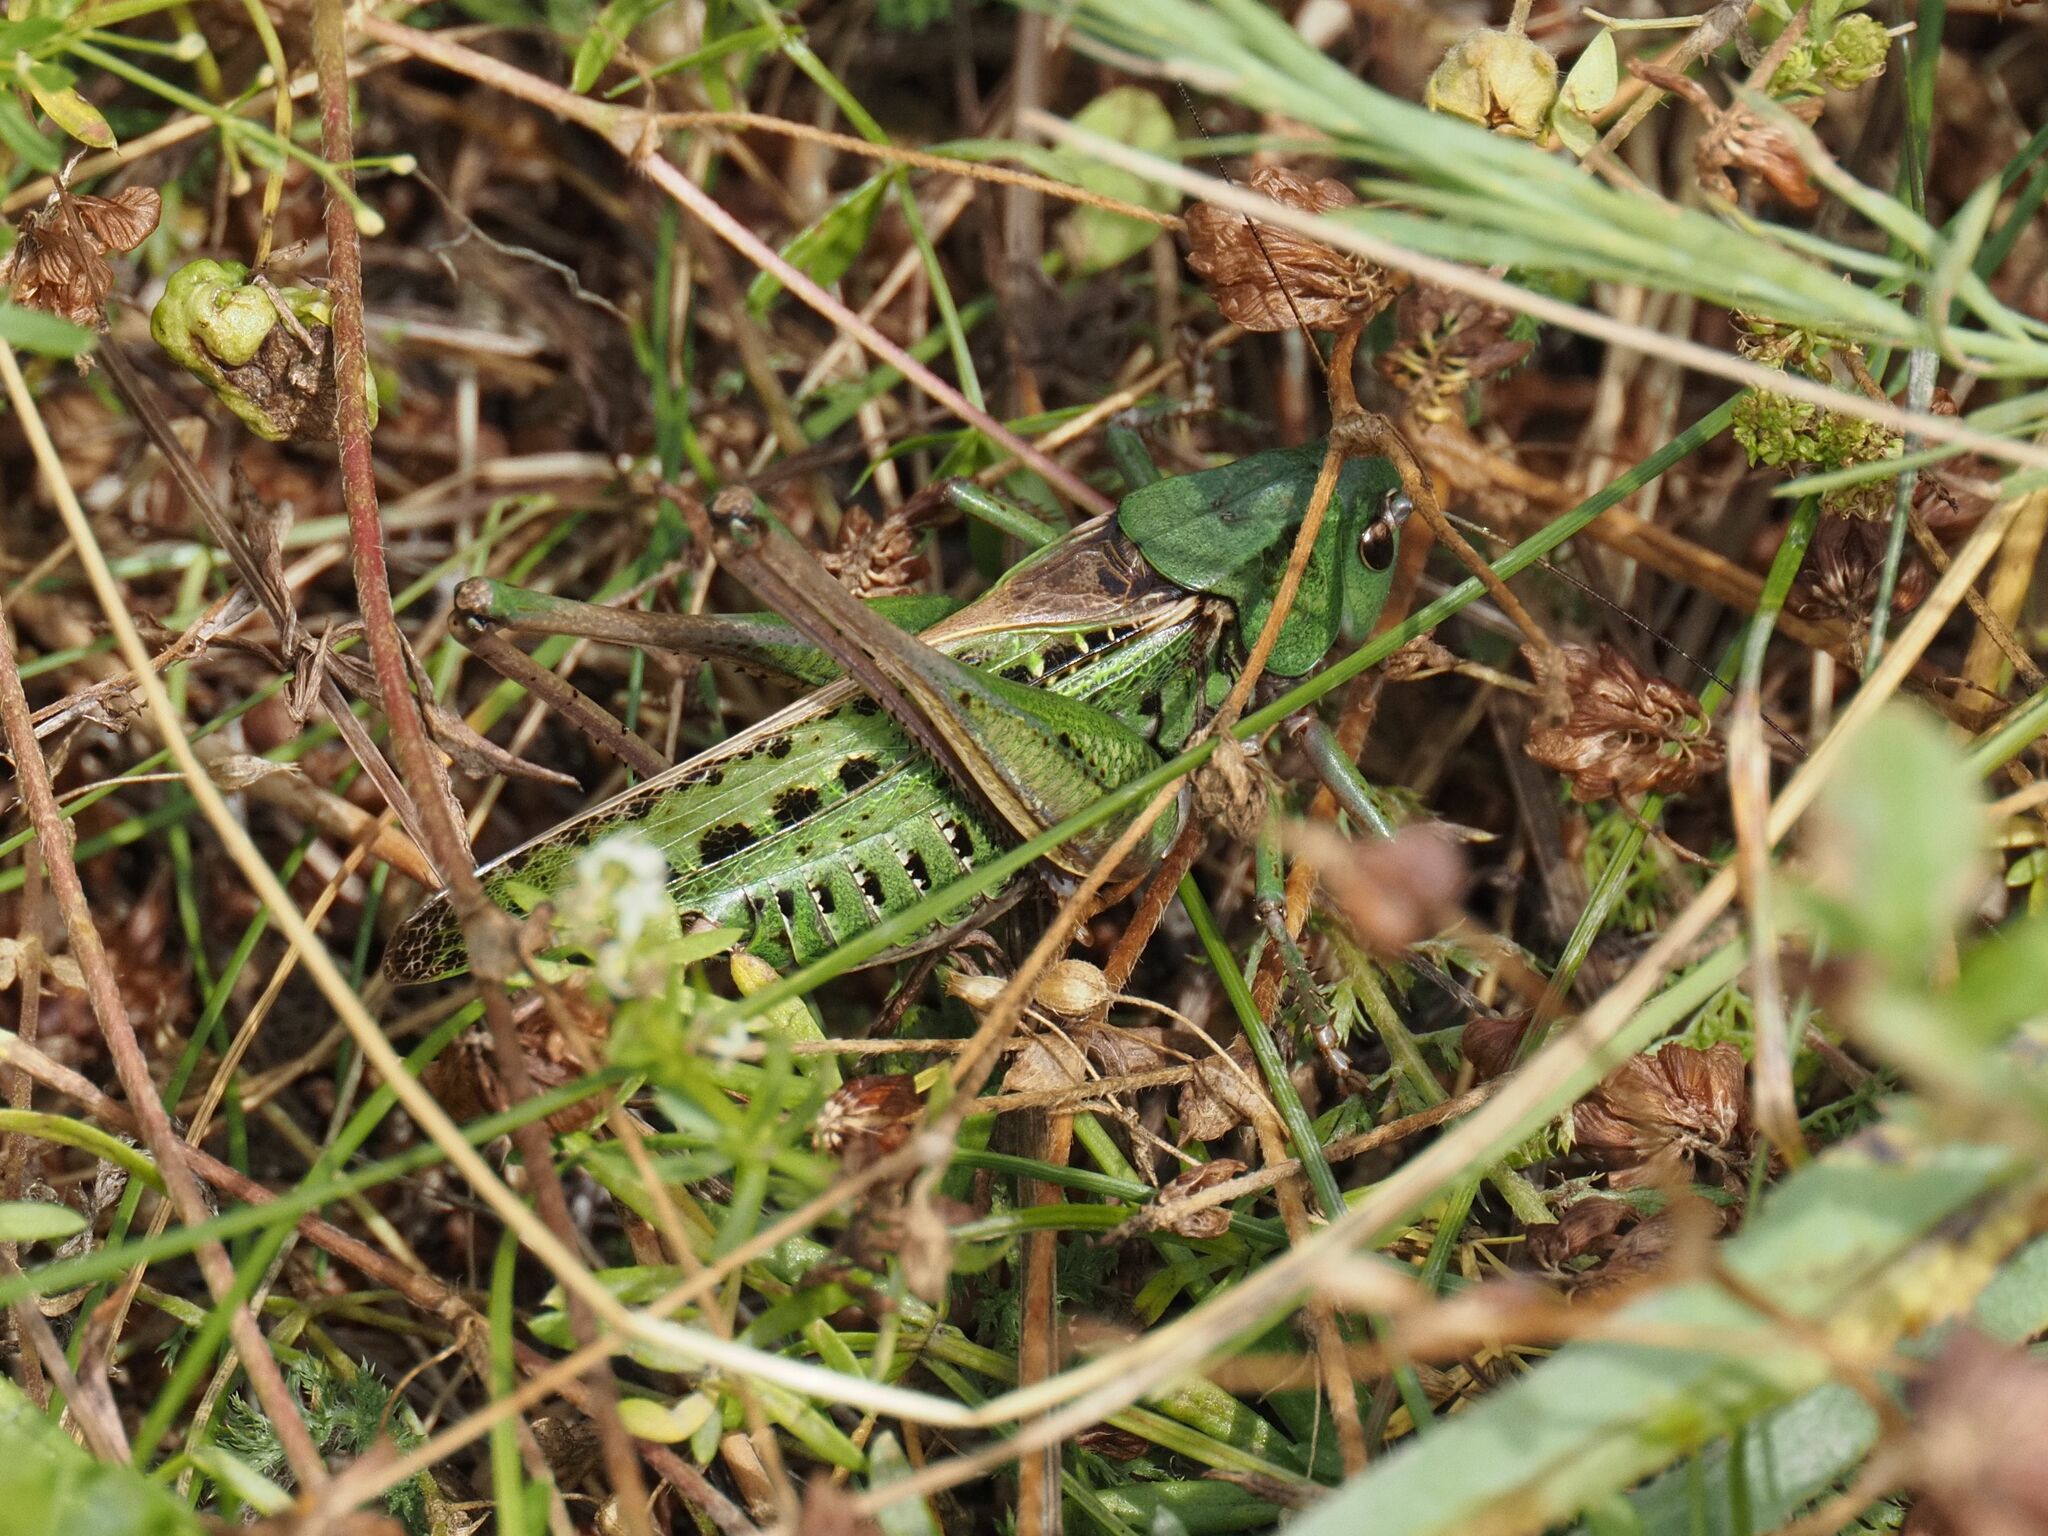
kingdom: Animalia
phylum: Arthropoda
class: Insecta
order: Orthoptera
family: Tettigoniidae
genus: Decticus
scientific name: Decticus verrucivorus
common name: Wart-biter
